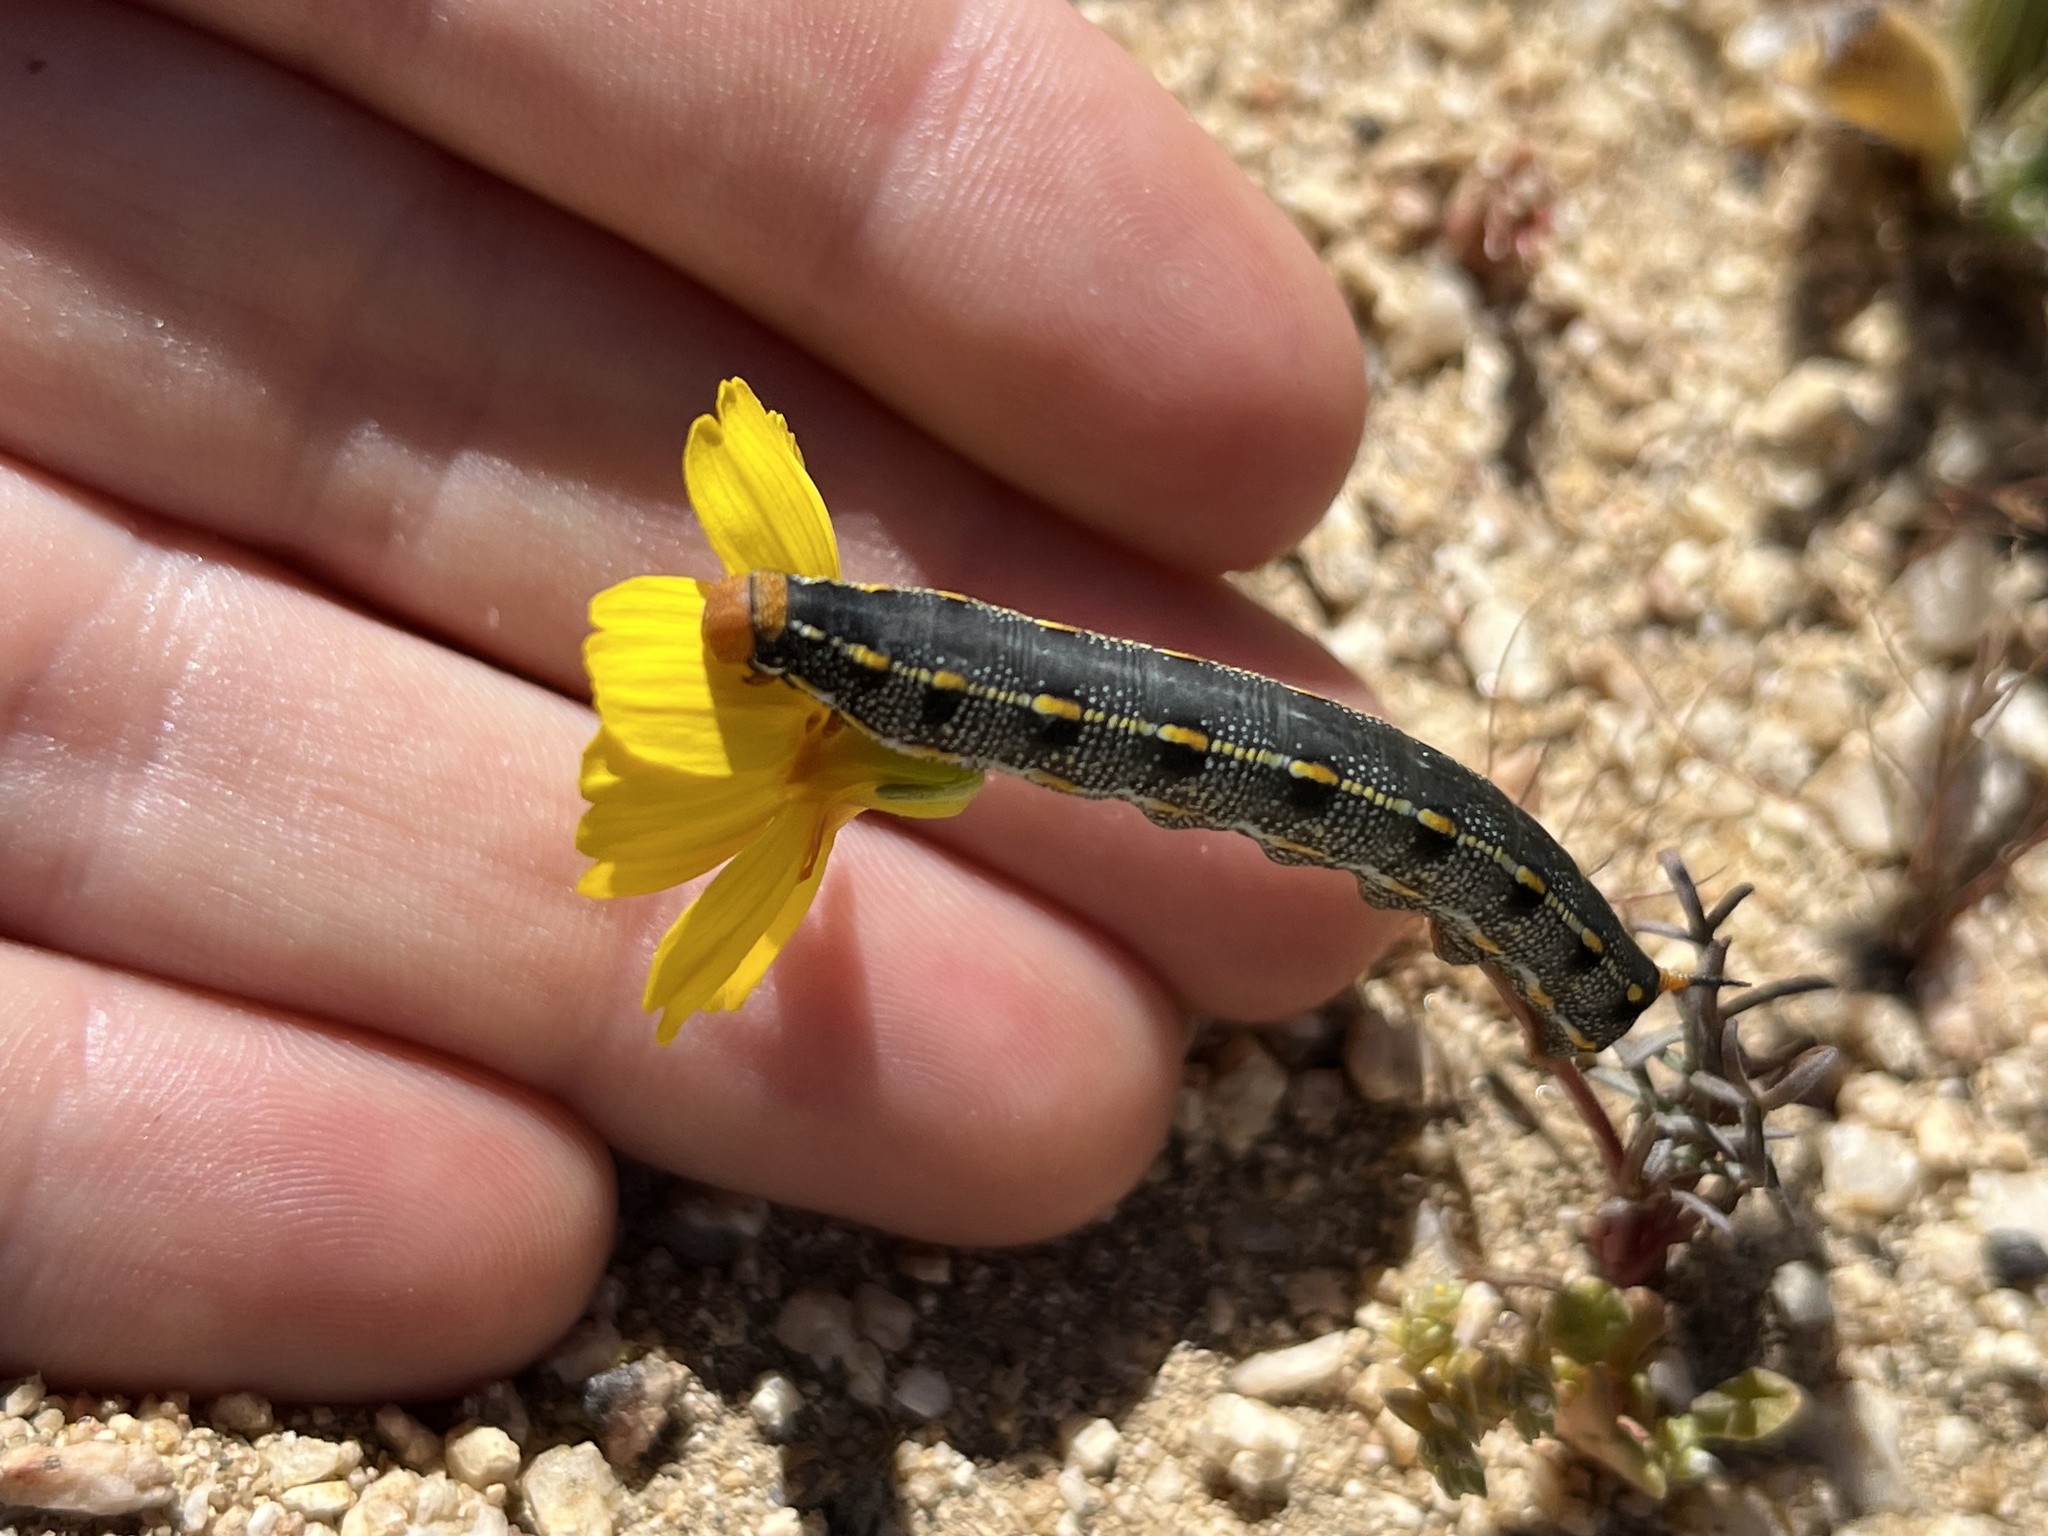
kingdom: Animalia
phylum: Arthropoda
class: Insecta
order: Lepidoptera
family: Sphingidae
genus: Hyles
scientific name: Hyles lineata
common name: White-lined sphinx
